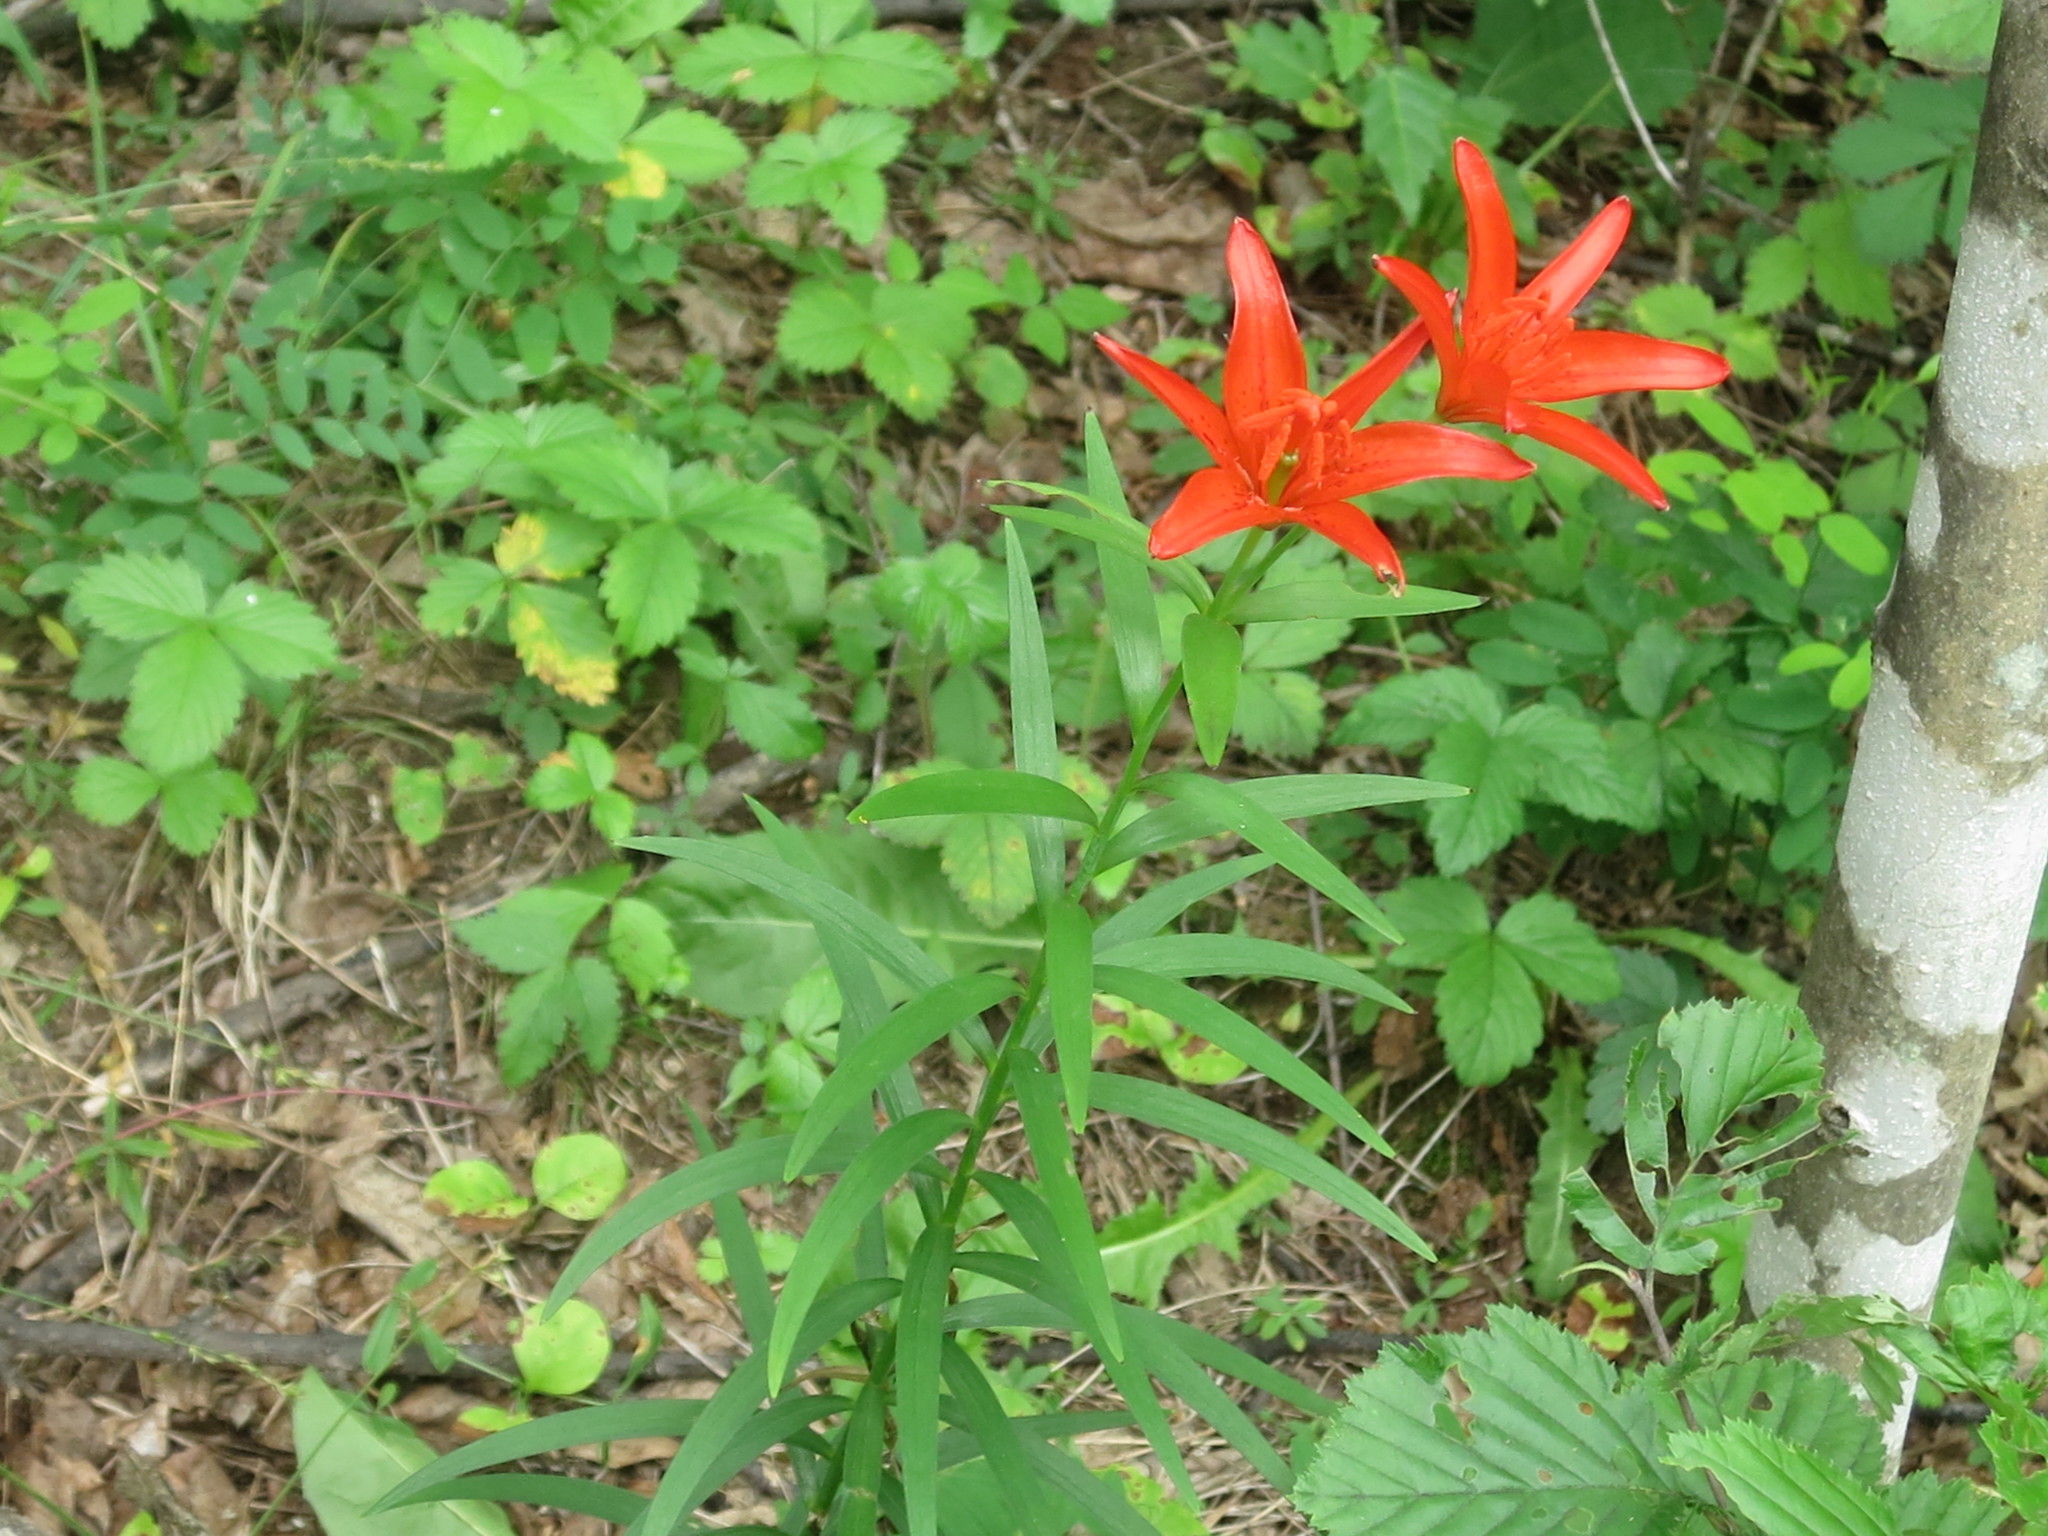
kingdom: Plantae
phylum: Tracheophyta
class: Liliopsida
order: Liliales
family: Liliaceae
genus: Lilium
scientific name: Lilium concolor
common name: Morning-star lily
